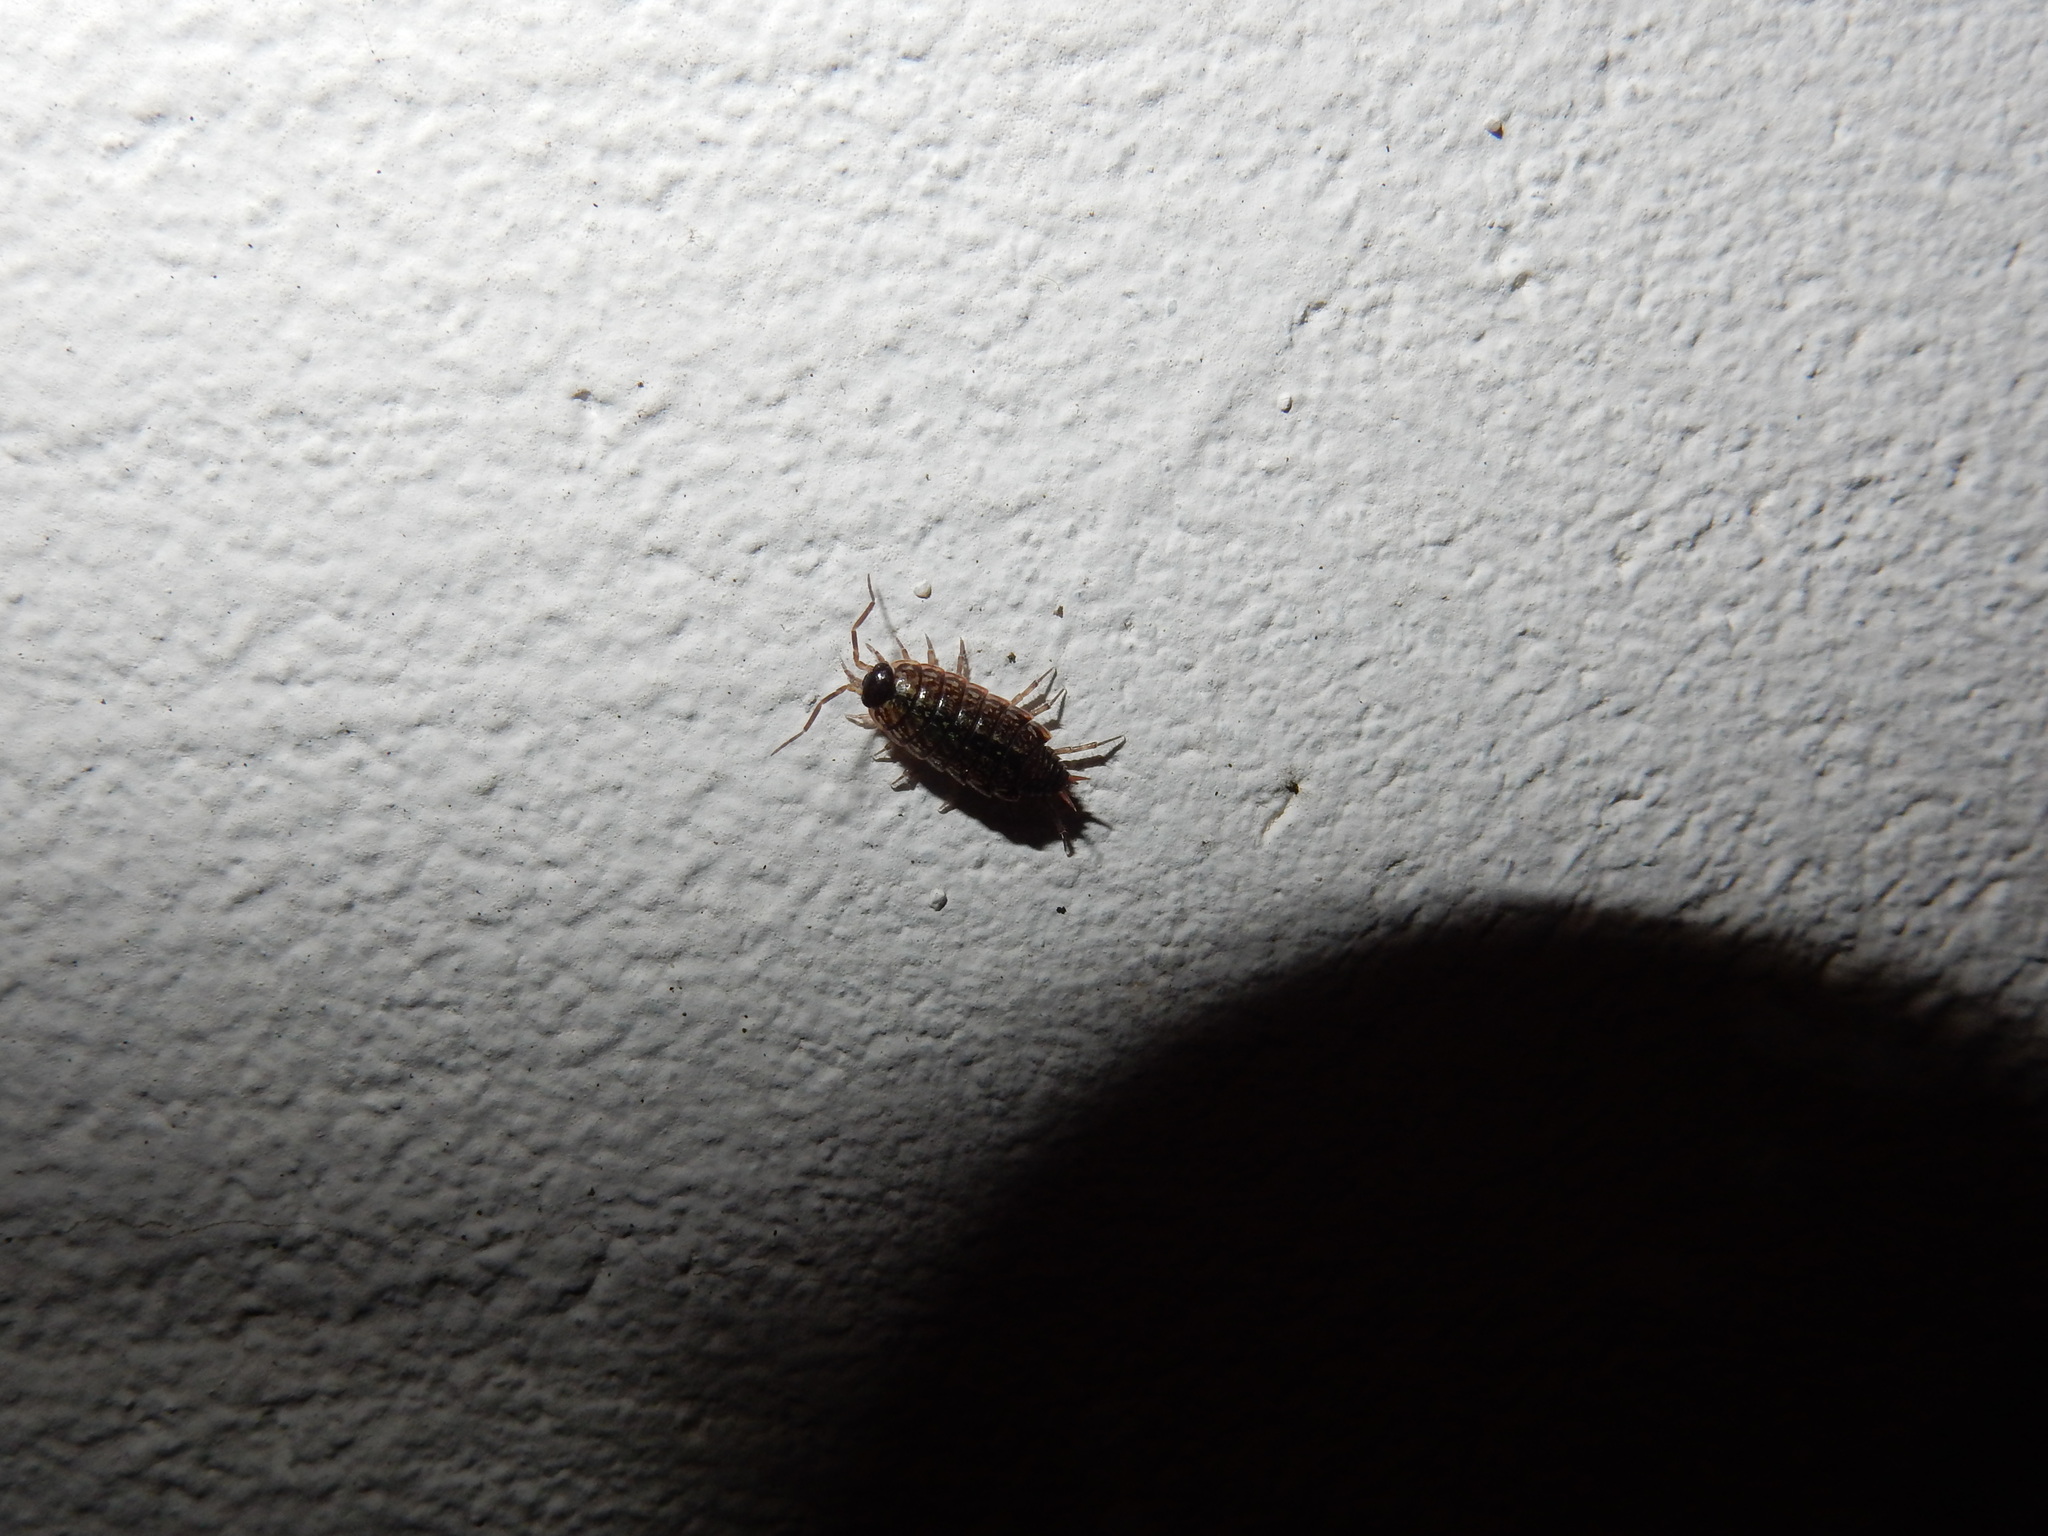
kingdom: Animalia
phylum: Arthropoda
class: Malacostraca
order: Isopoda
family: Philosciidae
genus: Philoscia
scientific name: Philoscia muscorum
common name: Common striped woodlouse
